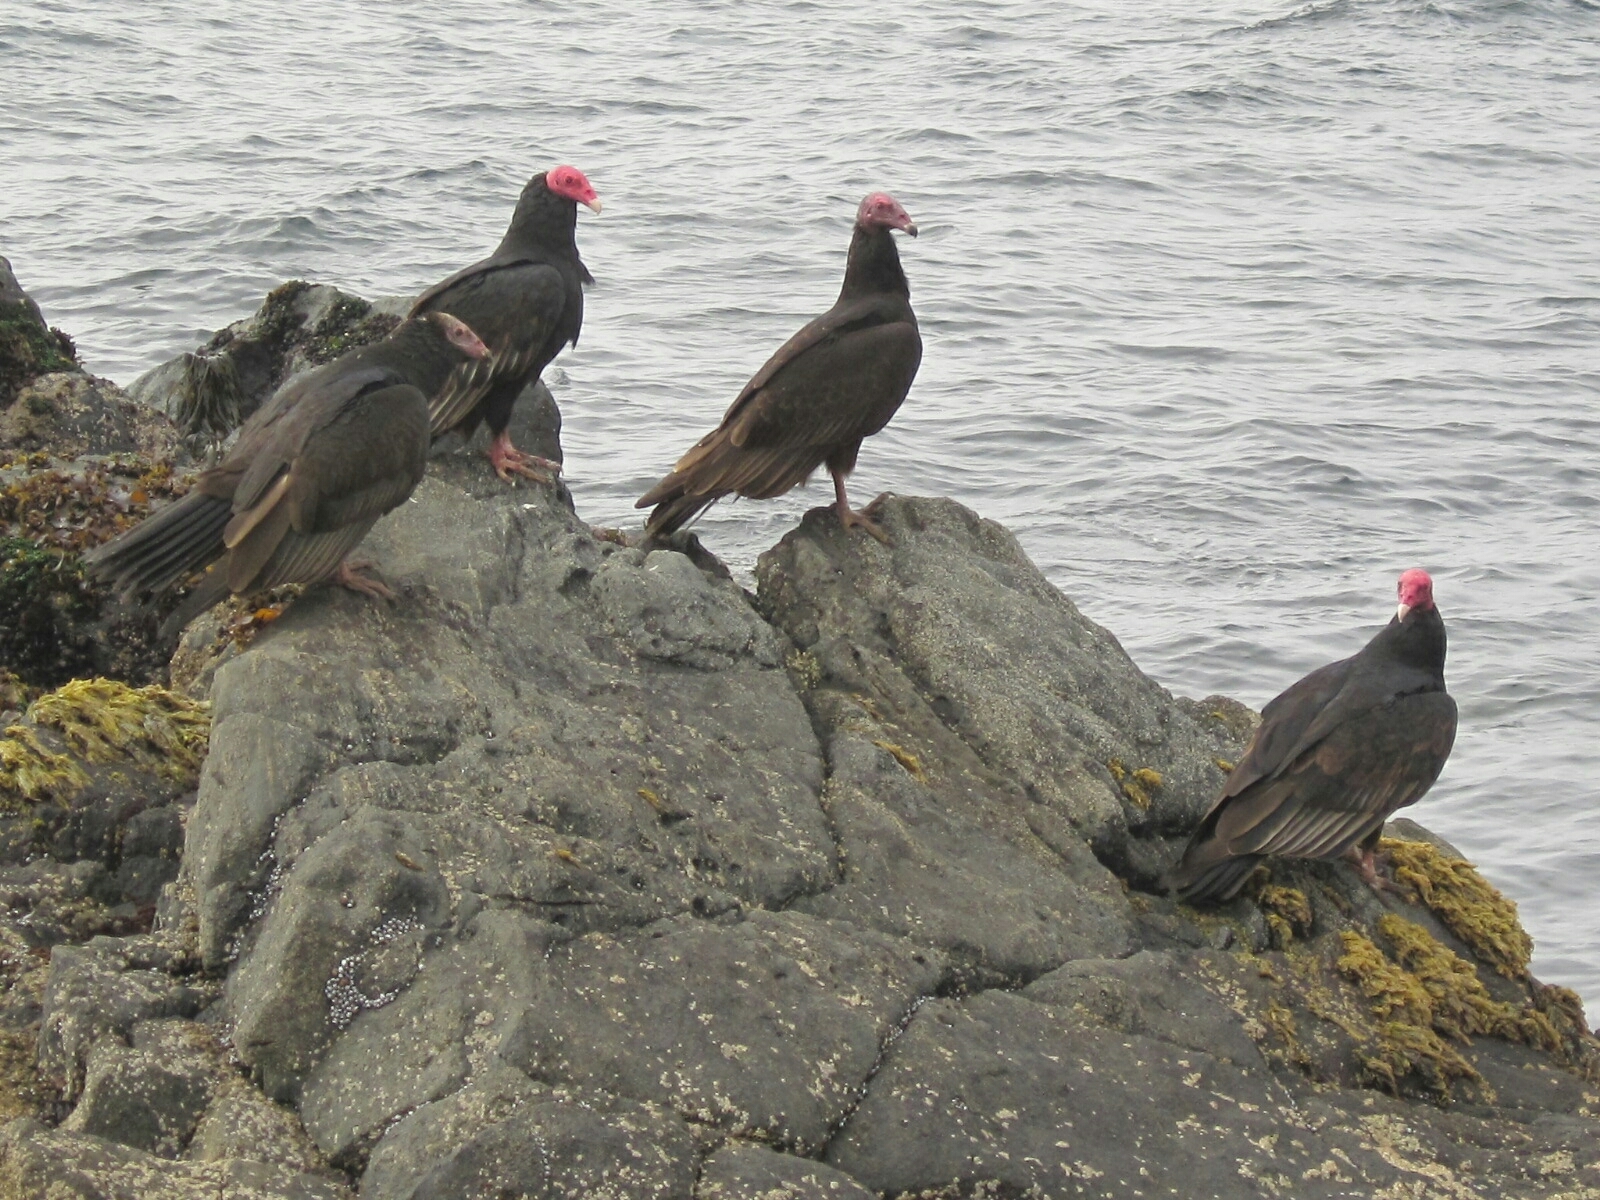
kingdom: Animalia
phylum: Chordata
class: Aves
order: Accipitriformes
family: Cathartidae
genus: Cathartes
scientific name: Cathartes aura
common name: Turkey vulture
